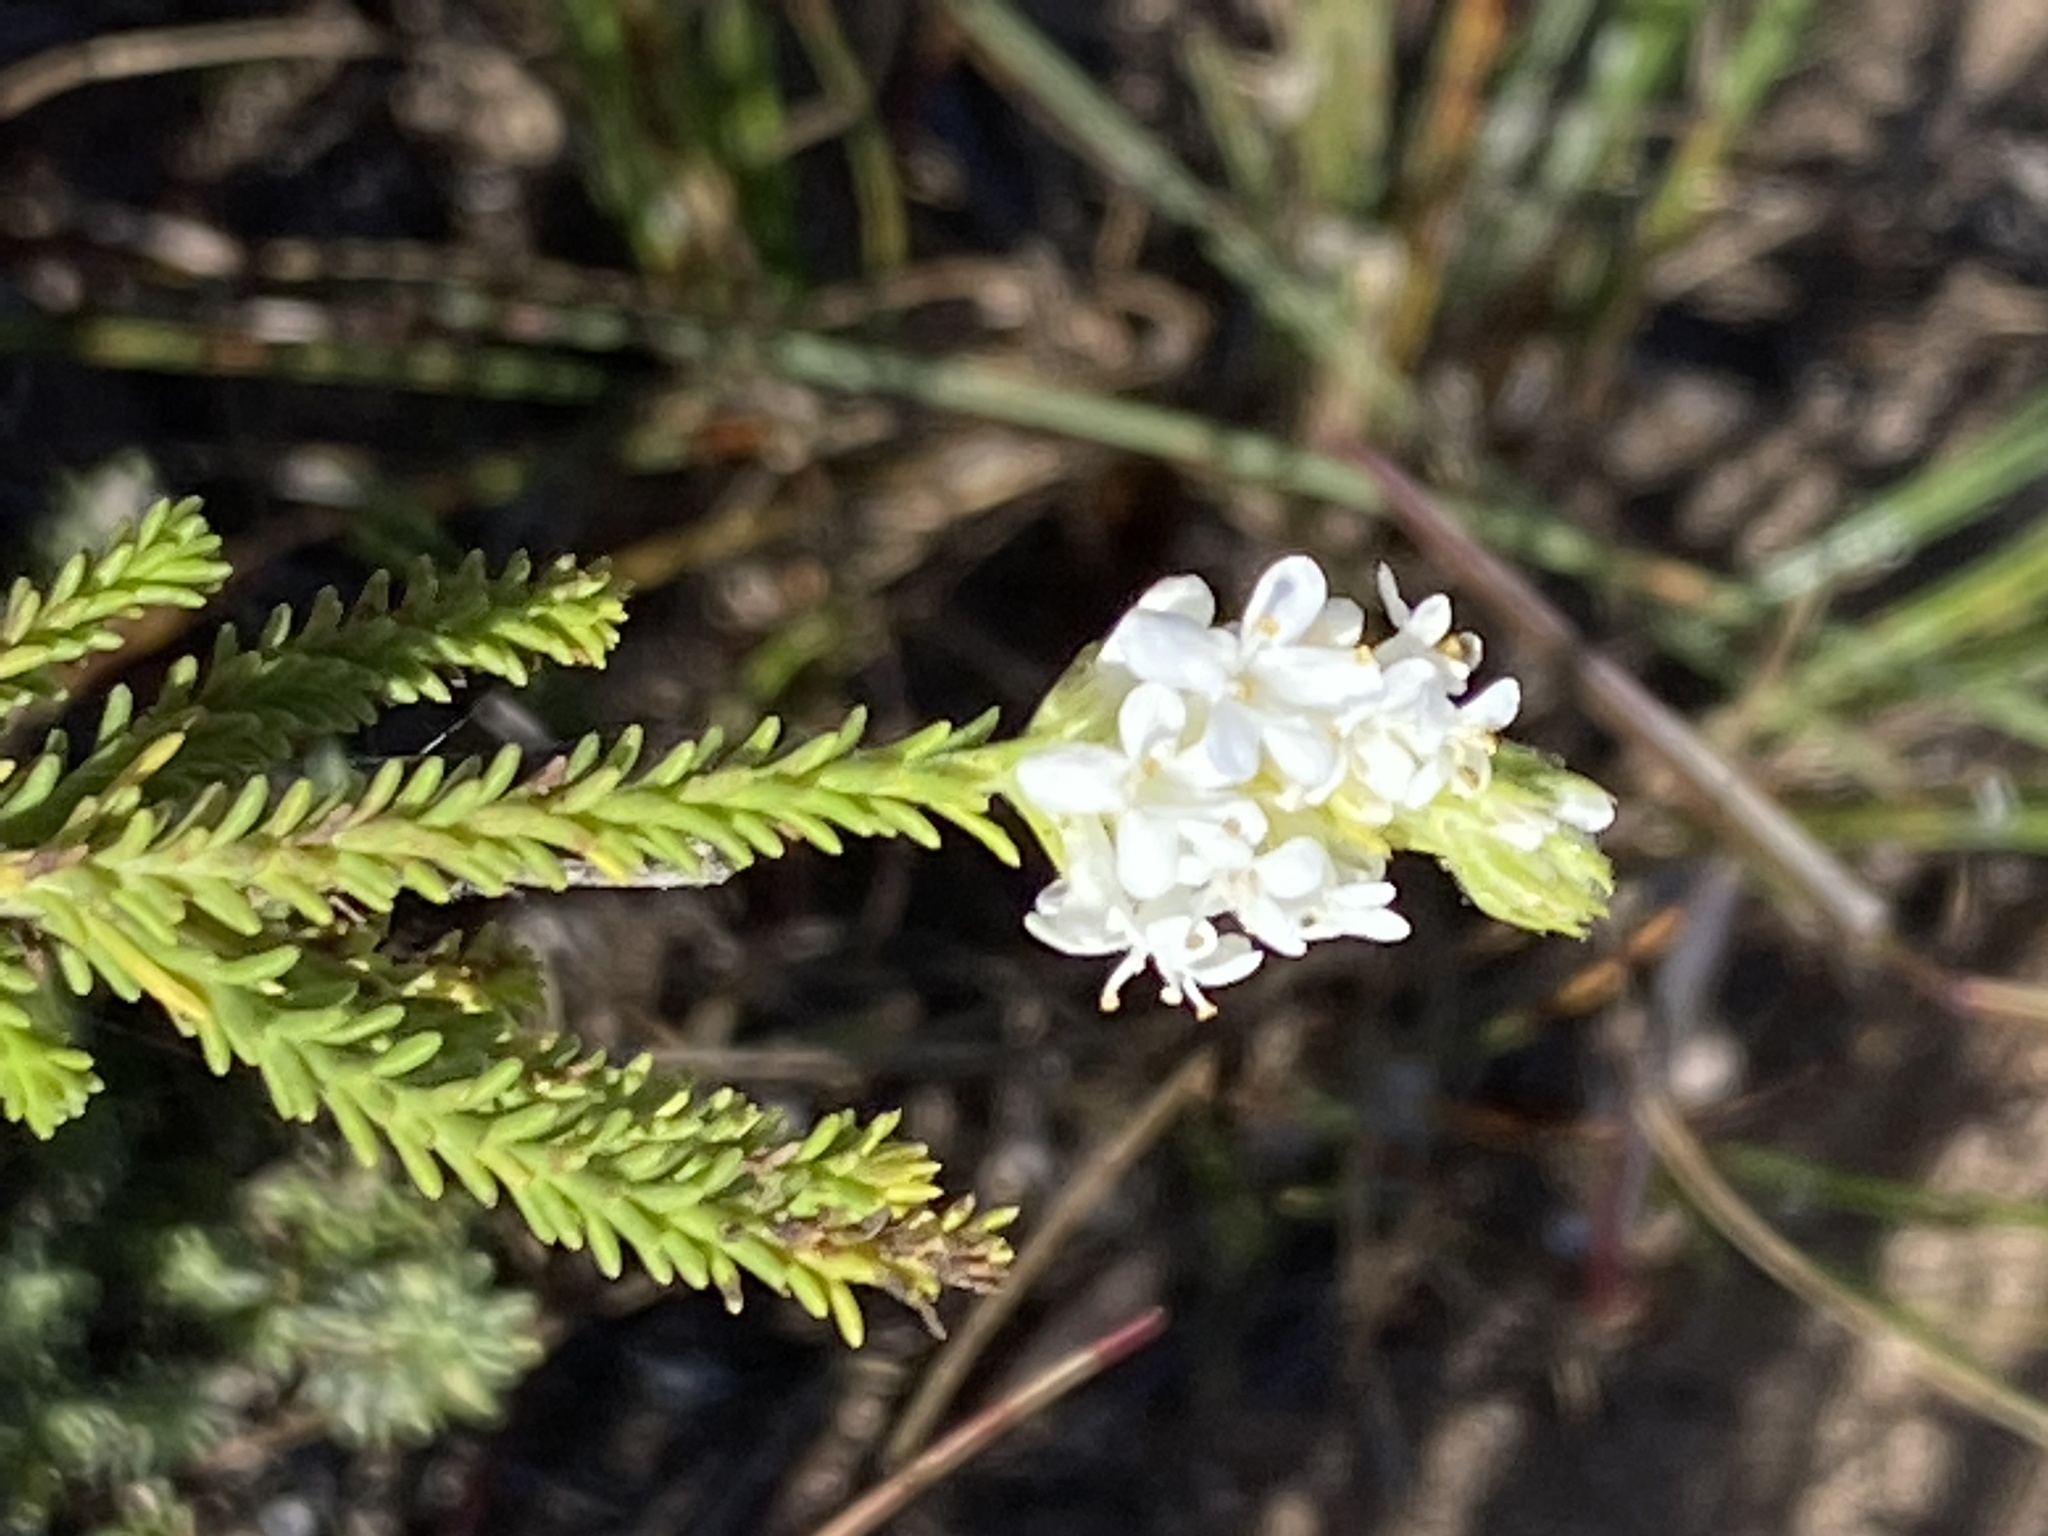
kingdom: Plantae
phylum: Tracheophyta
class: Magnoliopsida
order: Lamiales
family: Scrophulariaceae
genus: Selago
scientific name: Selago diffusa
